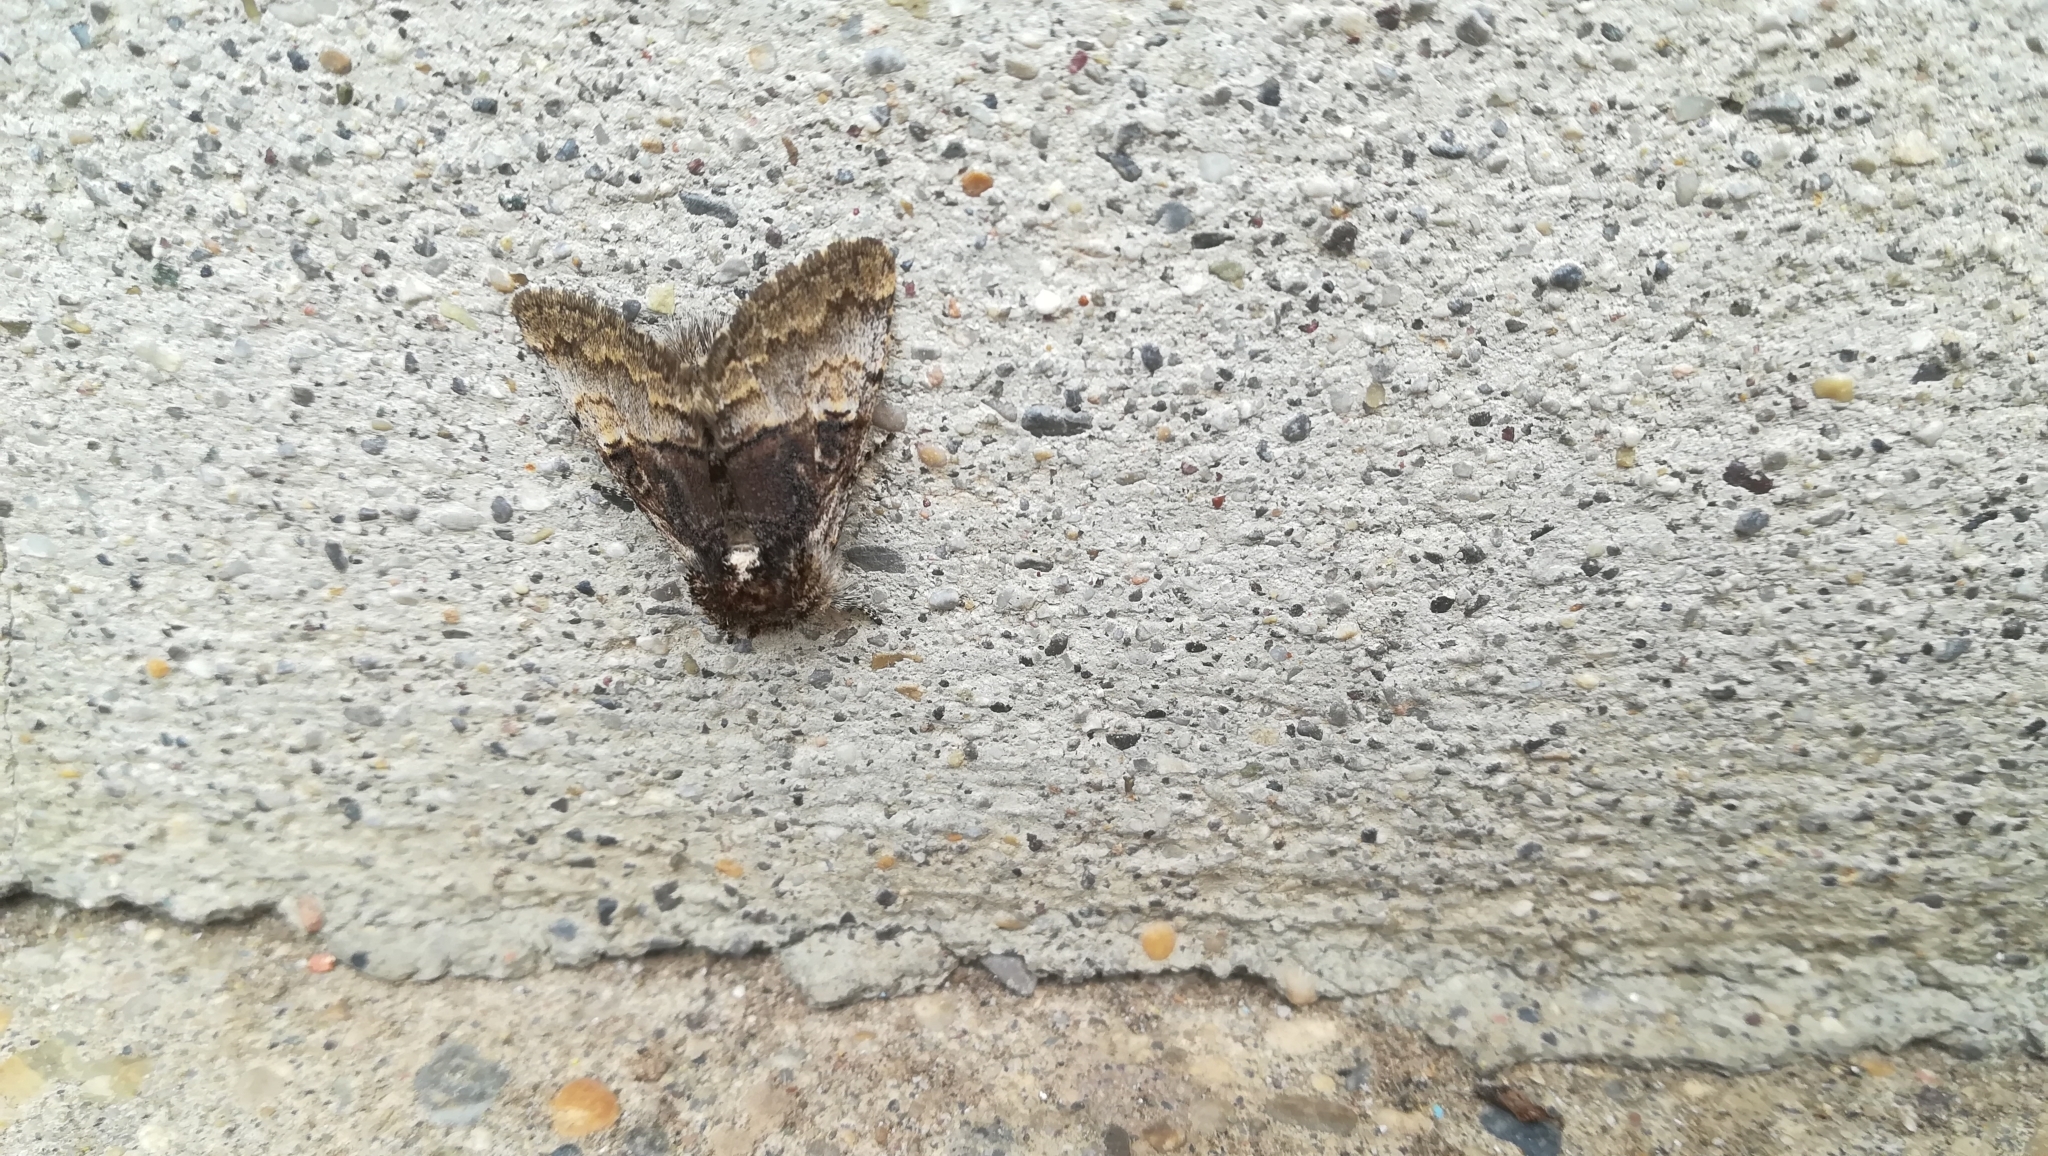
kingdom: Animalia
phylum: Arthropoda
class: Insecta
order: Lepidoptera
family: Noctuidae
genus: Colocasia
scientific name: Colocasia coryli
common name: Nut-tree tussock
